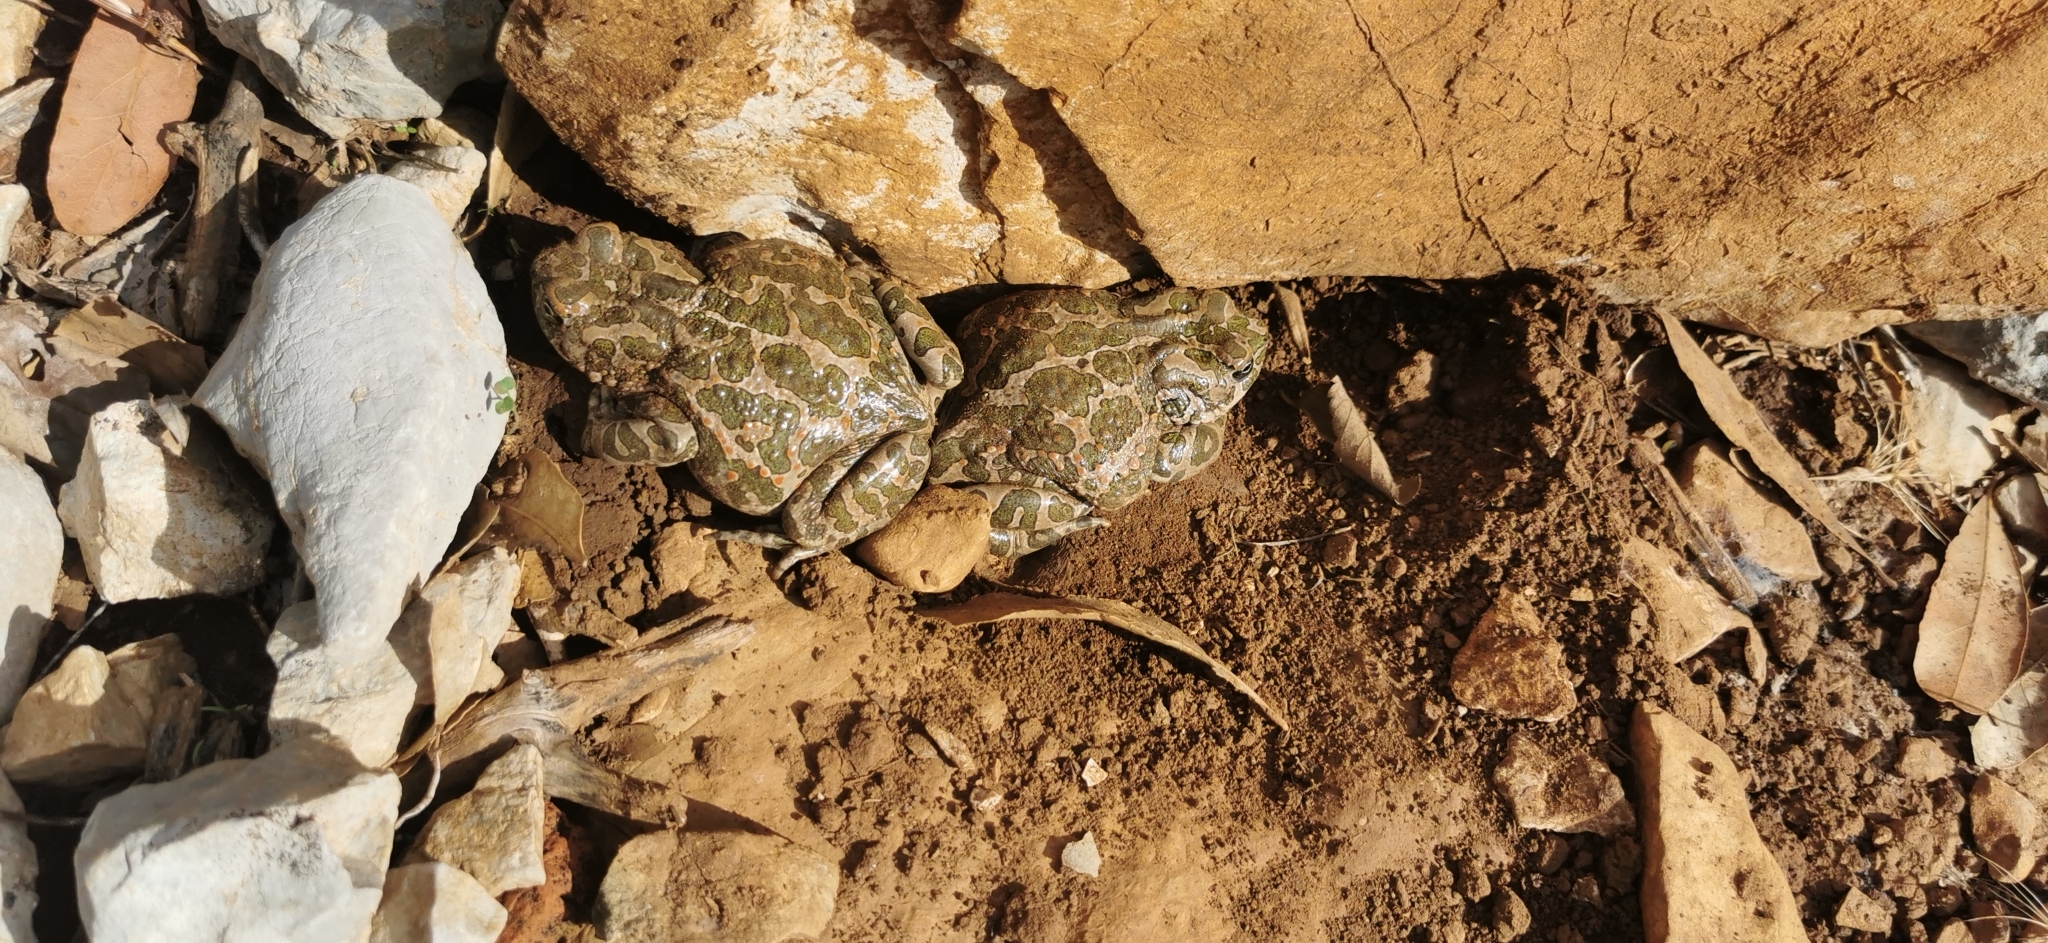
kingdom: Animalia
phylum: Chordata
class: Amphibia
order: Anura
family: Bufonidae
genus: Bufotes
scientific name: Bufotes viridis
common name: European green toad
